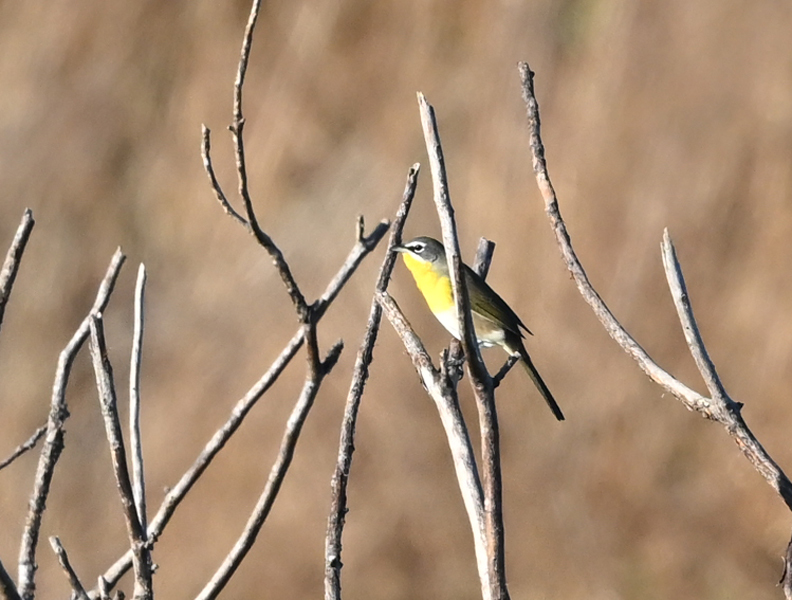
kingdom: Animalia
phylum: Chordata
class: Aves
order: Passeriformes
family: Parulidae
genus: Icteria
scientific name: Icteria virens
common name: Yellow-breasted chat
